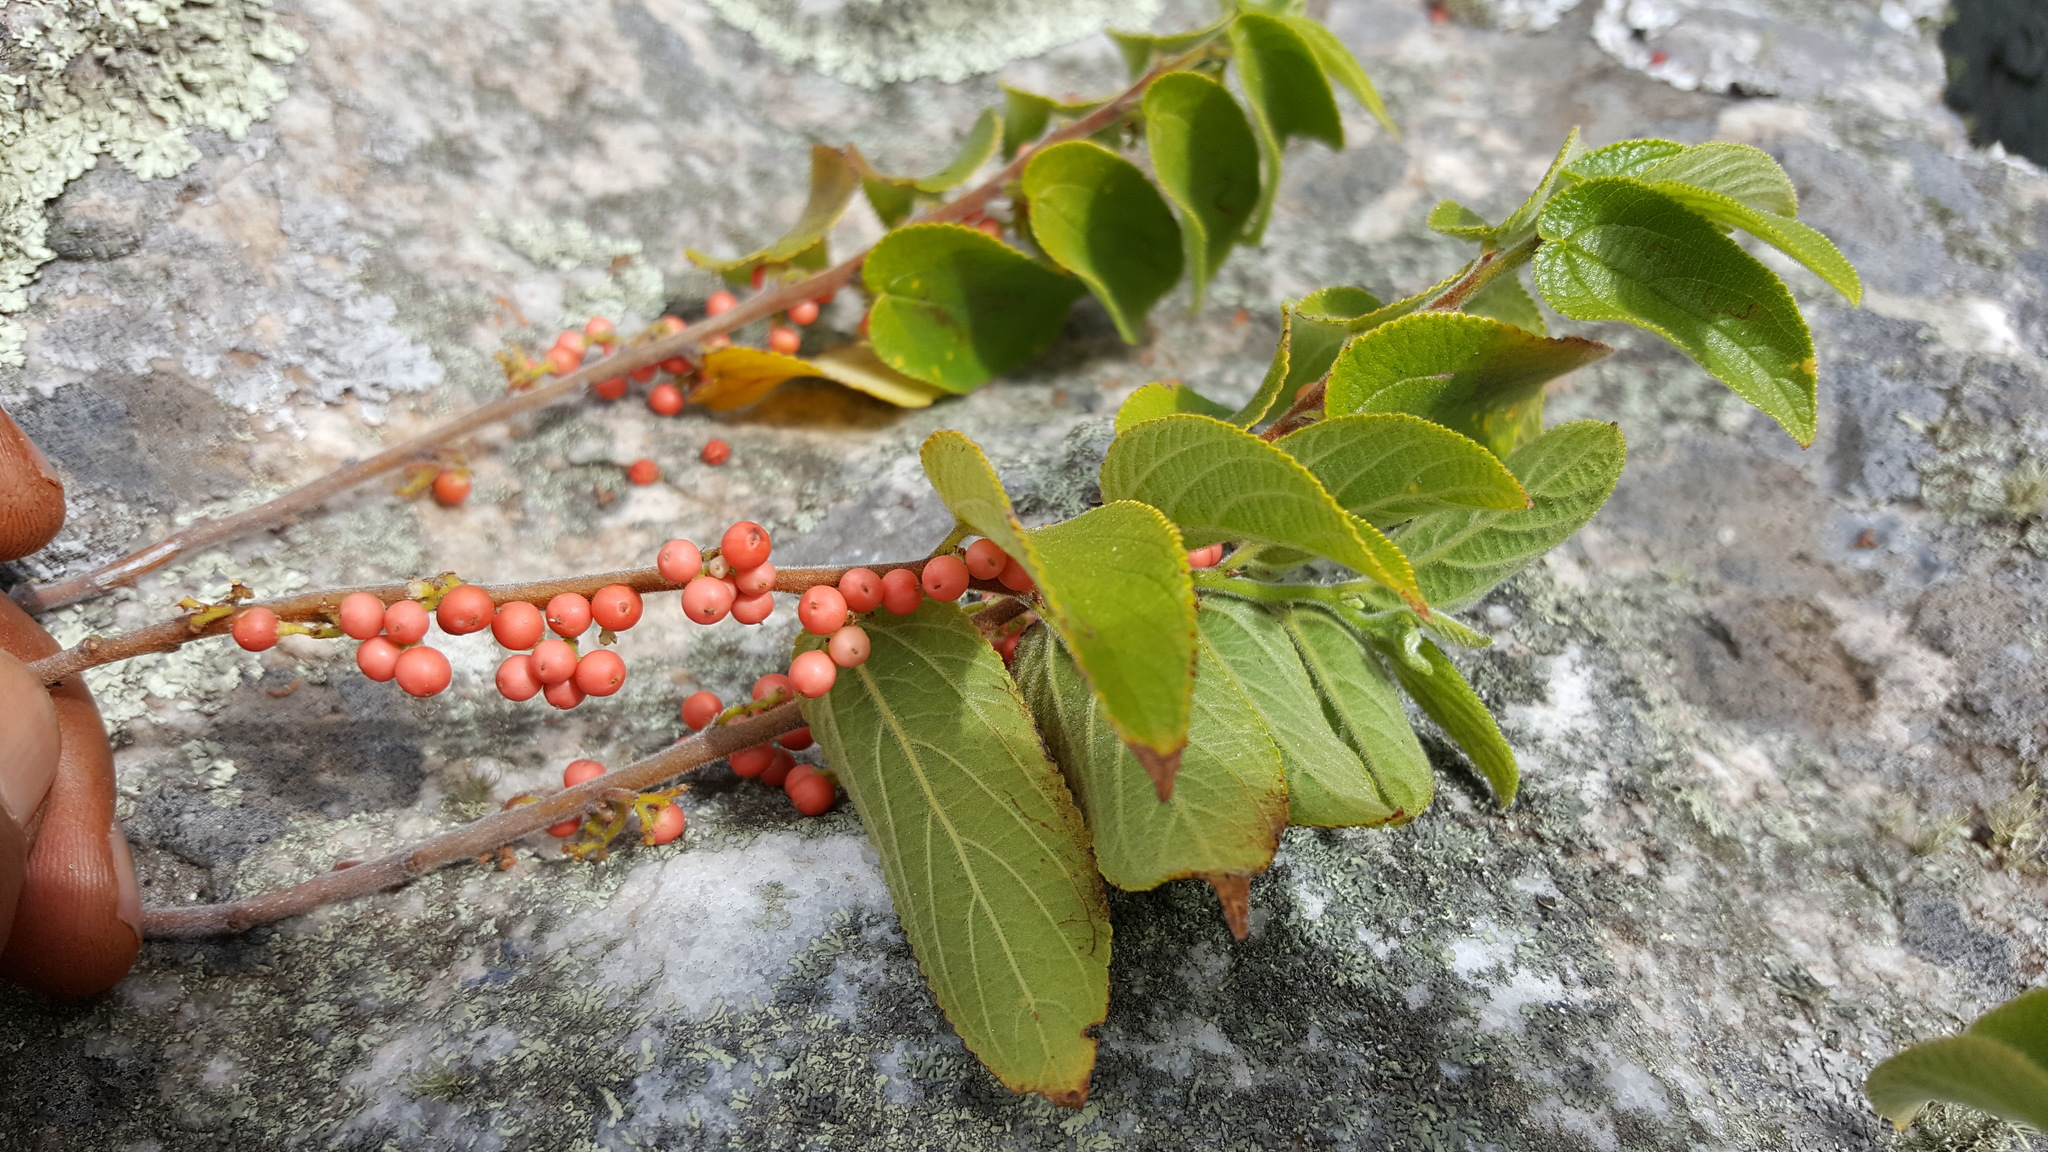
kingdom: Plantae
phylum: Tracheophyta
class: Magnoliopsida
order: Rosales
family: Cannabaceae
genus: Trema
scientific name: Trema orientale
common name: Indian charcoal tree
